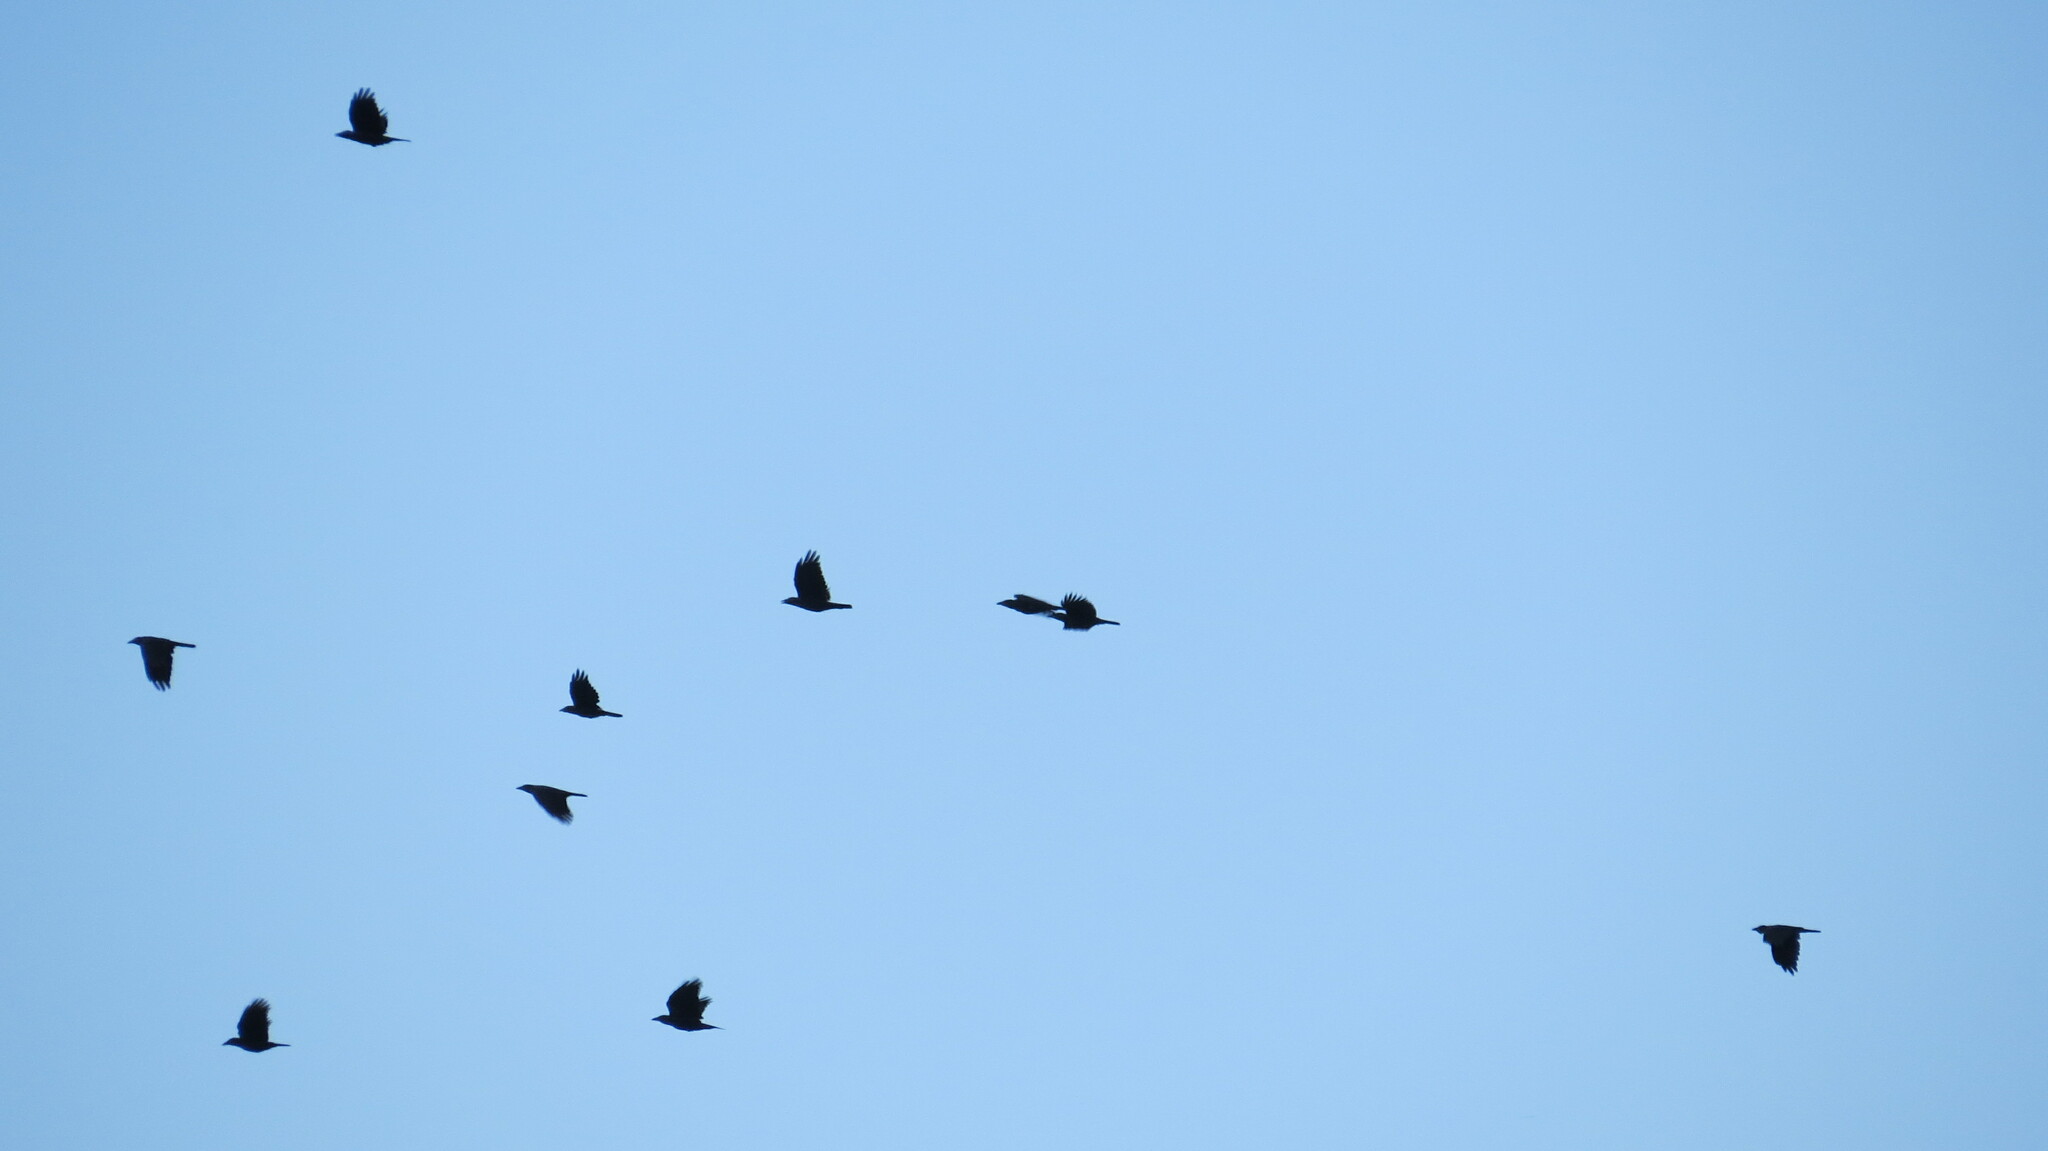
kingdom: Animalia
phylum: Chordata
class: Aves
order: Passeriformes
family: Corvidae
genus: Corvus
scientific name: Corvus brachyrhynchos
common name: American crow
